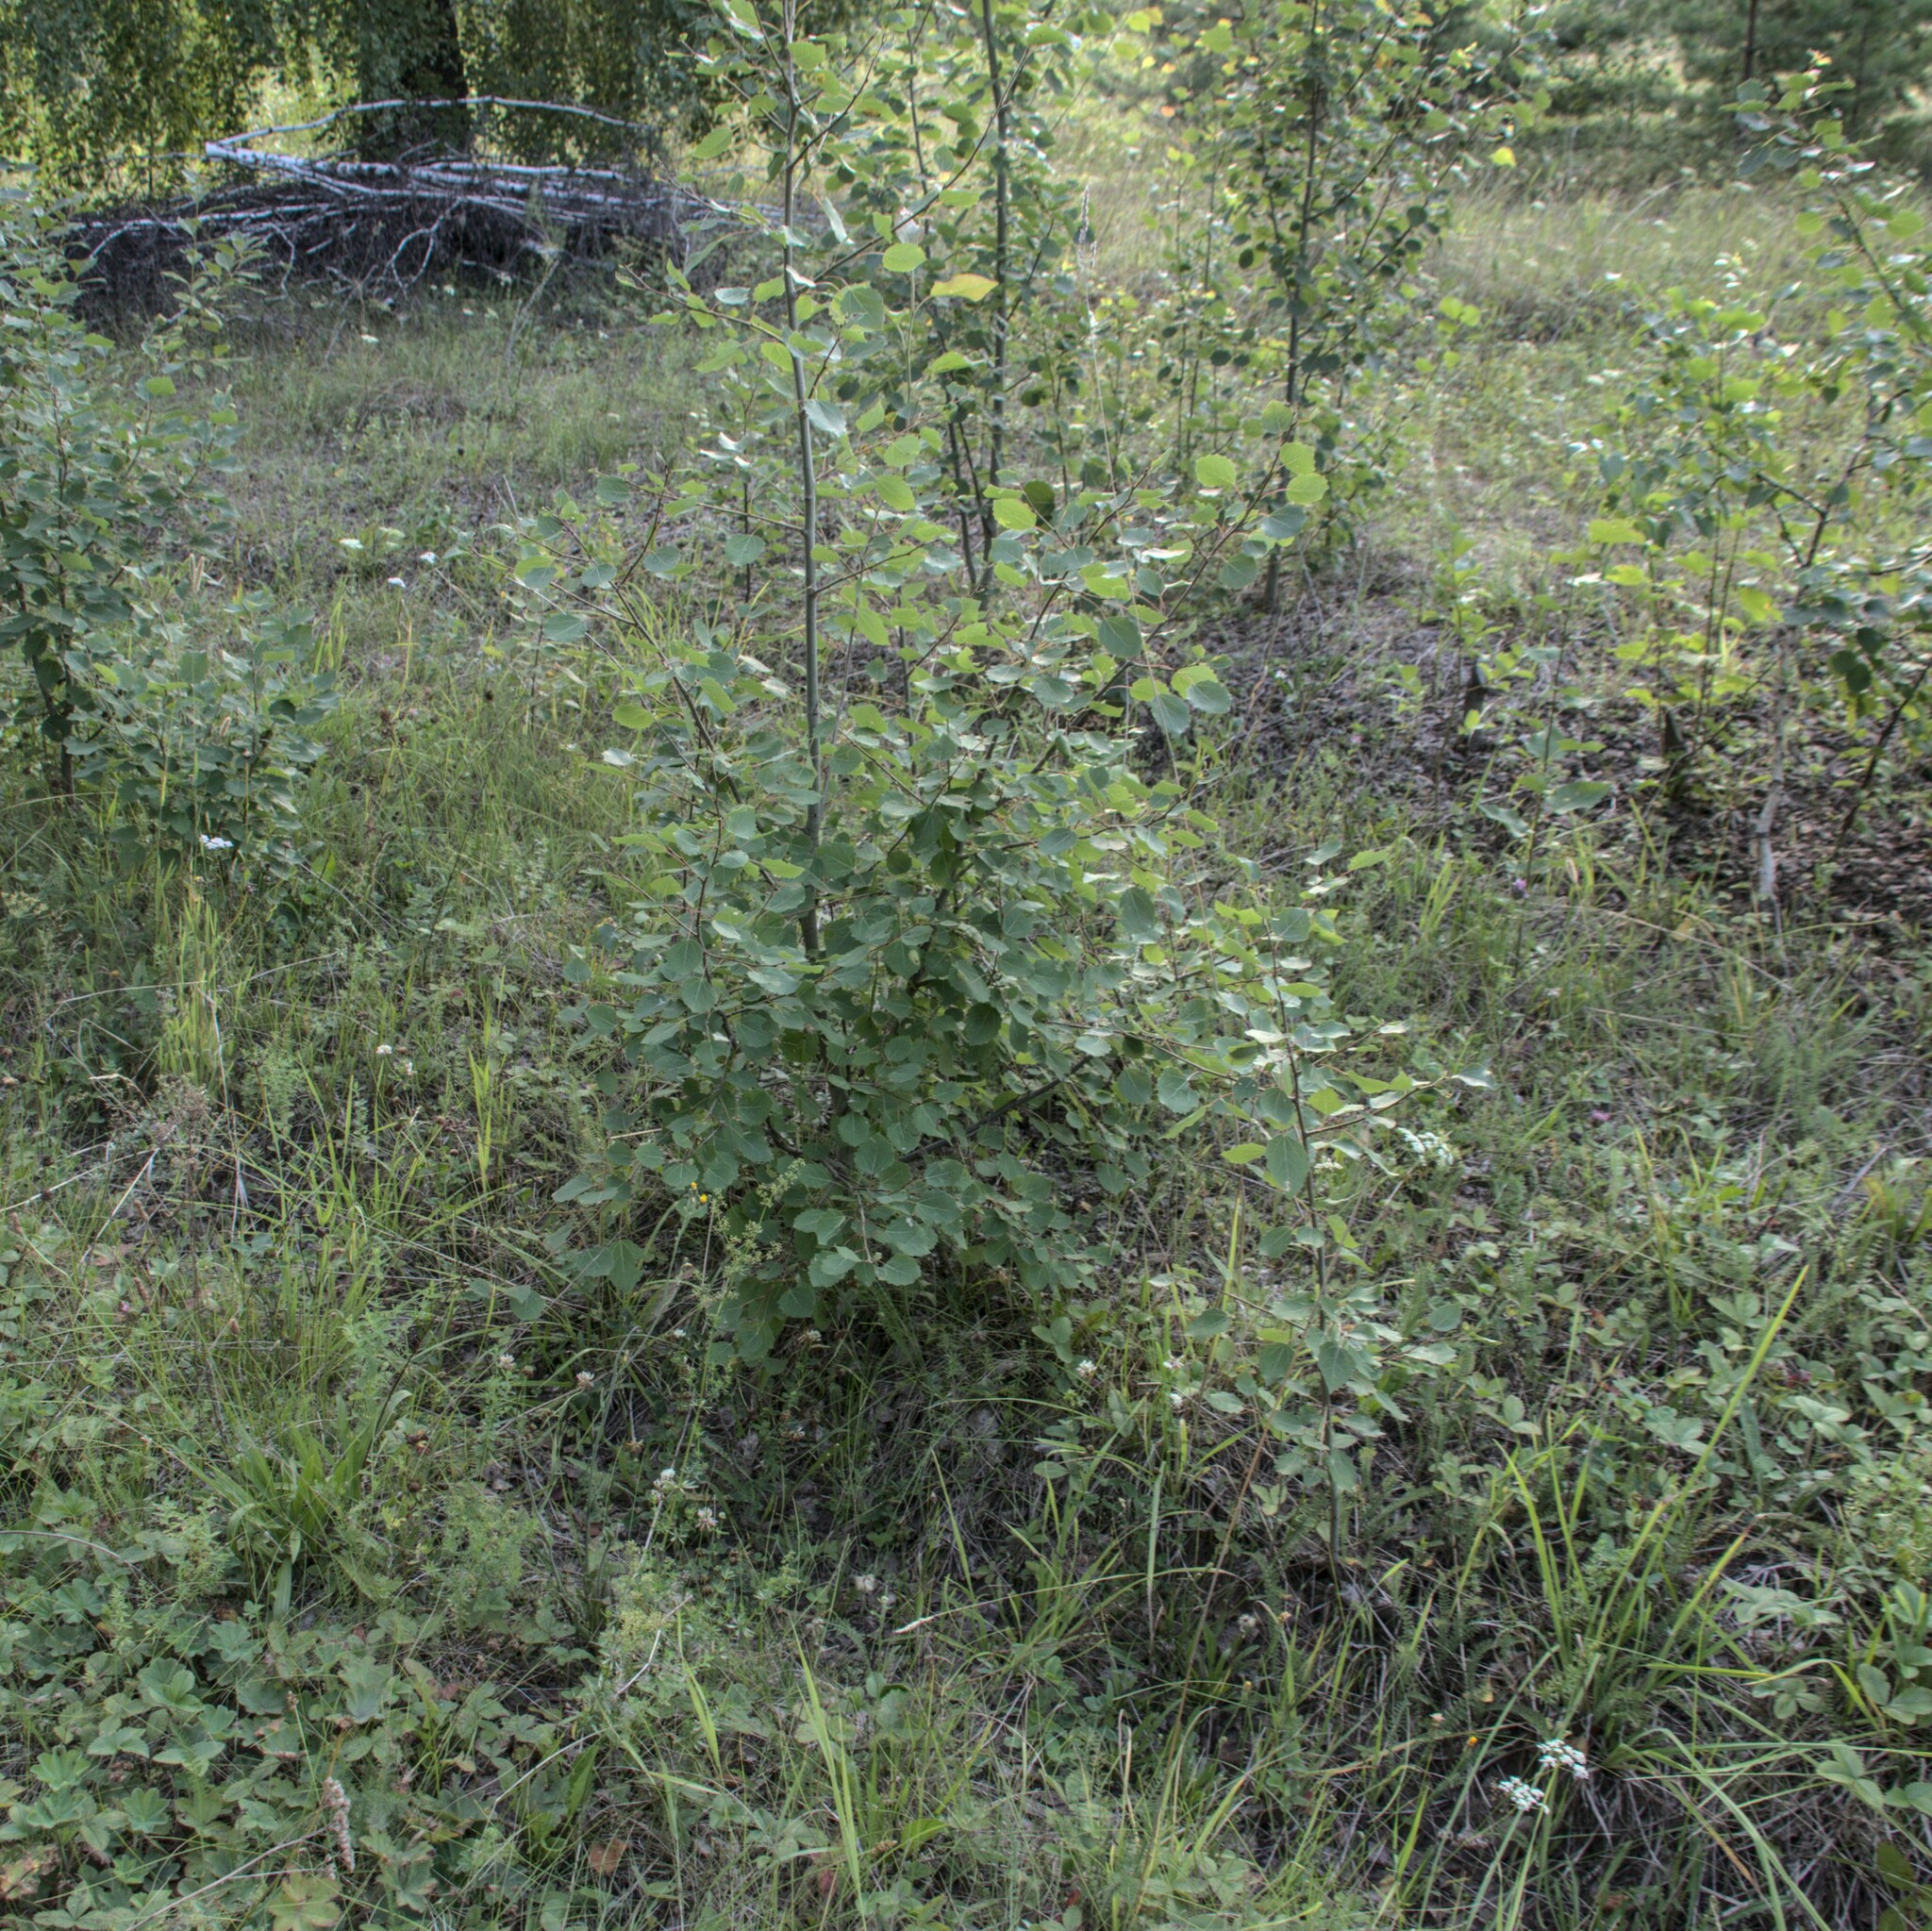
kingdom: Plantae
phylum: Tracheophyta
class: Magnoliopsida
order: Malpighiales
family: Salicaceae
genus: Populus
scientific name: Populus tremula
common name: European aspen
